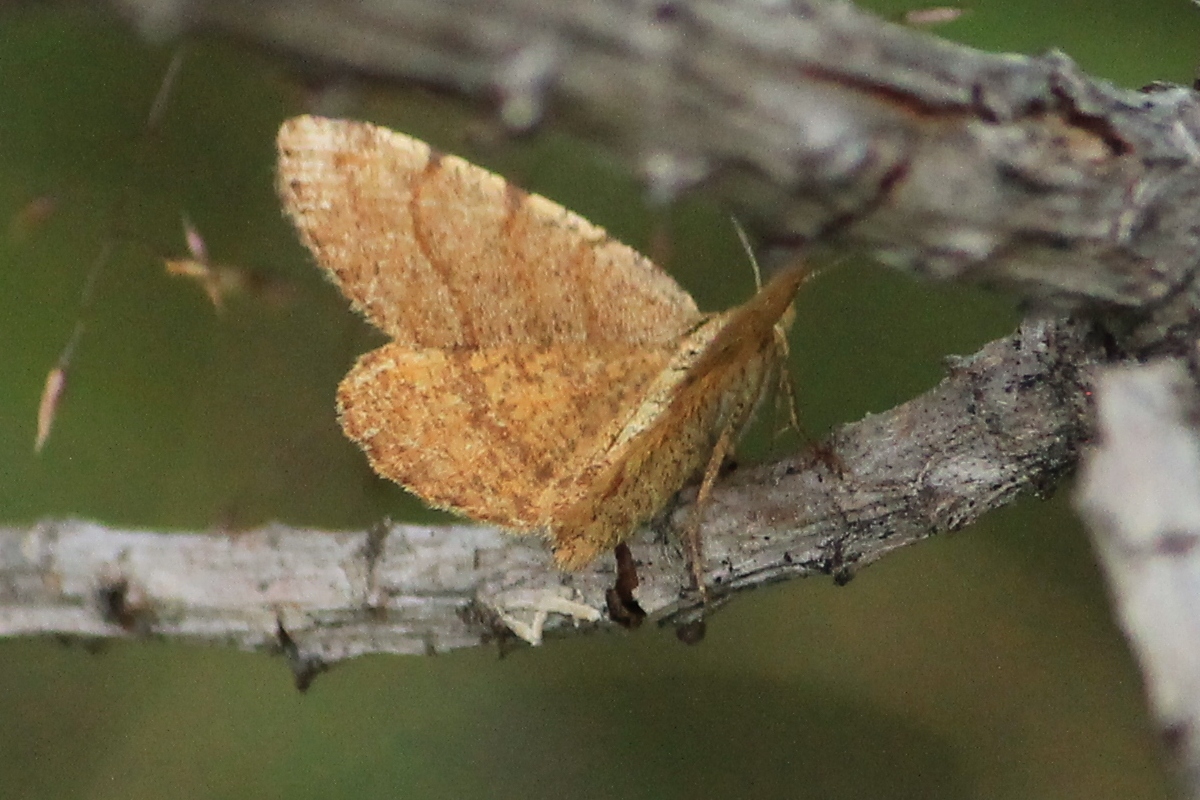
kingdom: Animalia
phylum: Arthropoda
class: Insecta
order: Lepidoptera
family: Geometridae
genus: Macaria
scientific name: Macaria brunneata
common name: Rannoch looper
